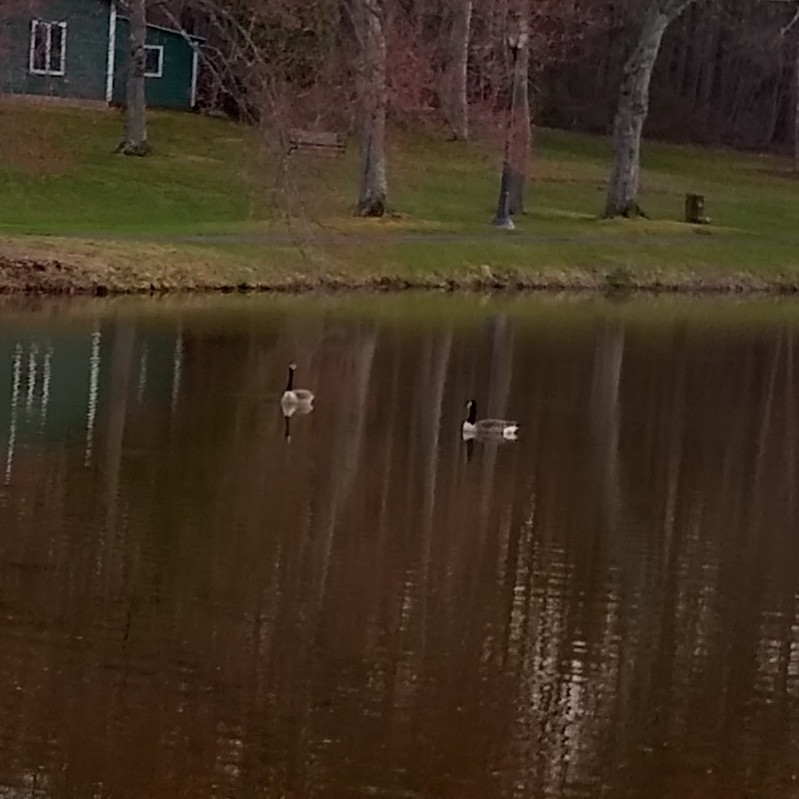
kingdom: Animalia
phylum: Chordata
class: Aves
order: Anseriformes
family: Anatidae
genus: Branta
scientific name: Branta canadensis
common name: Canada goose
